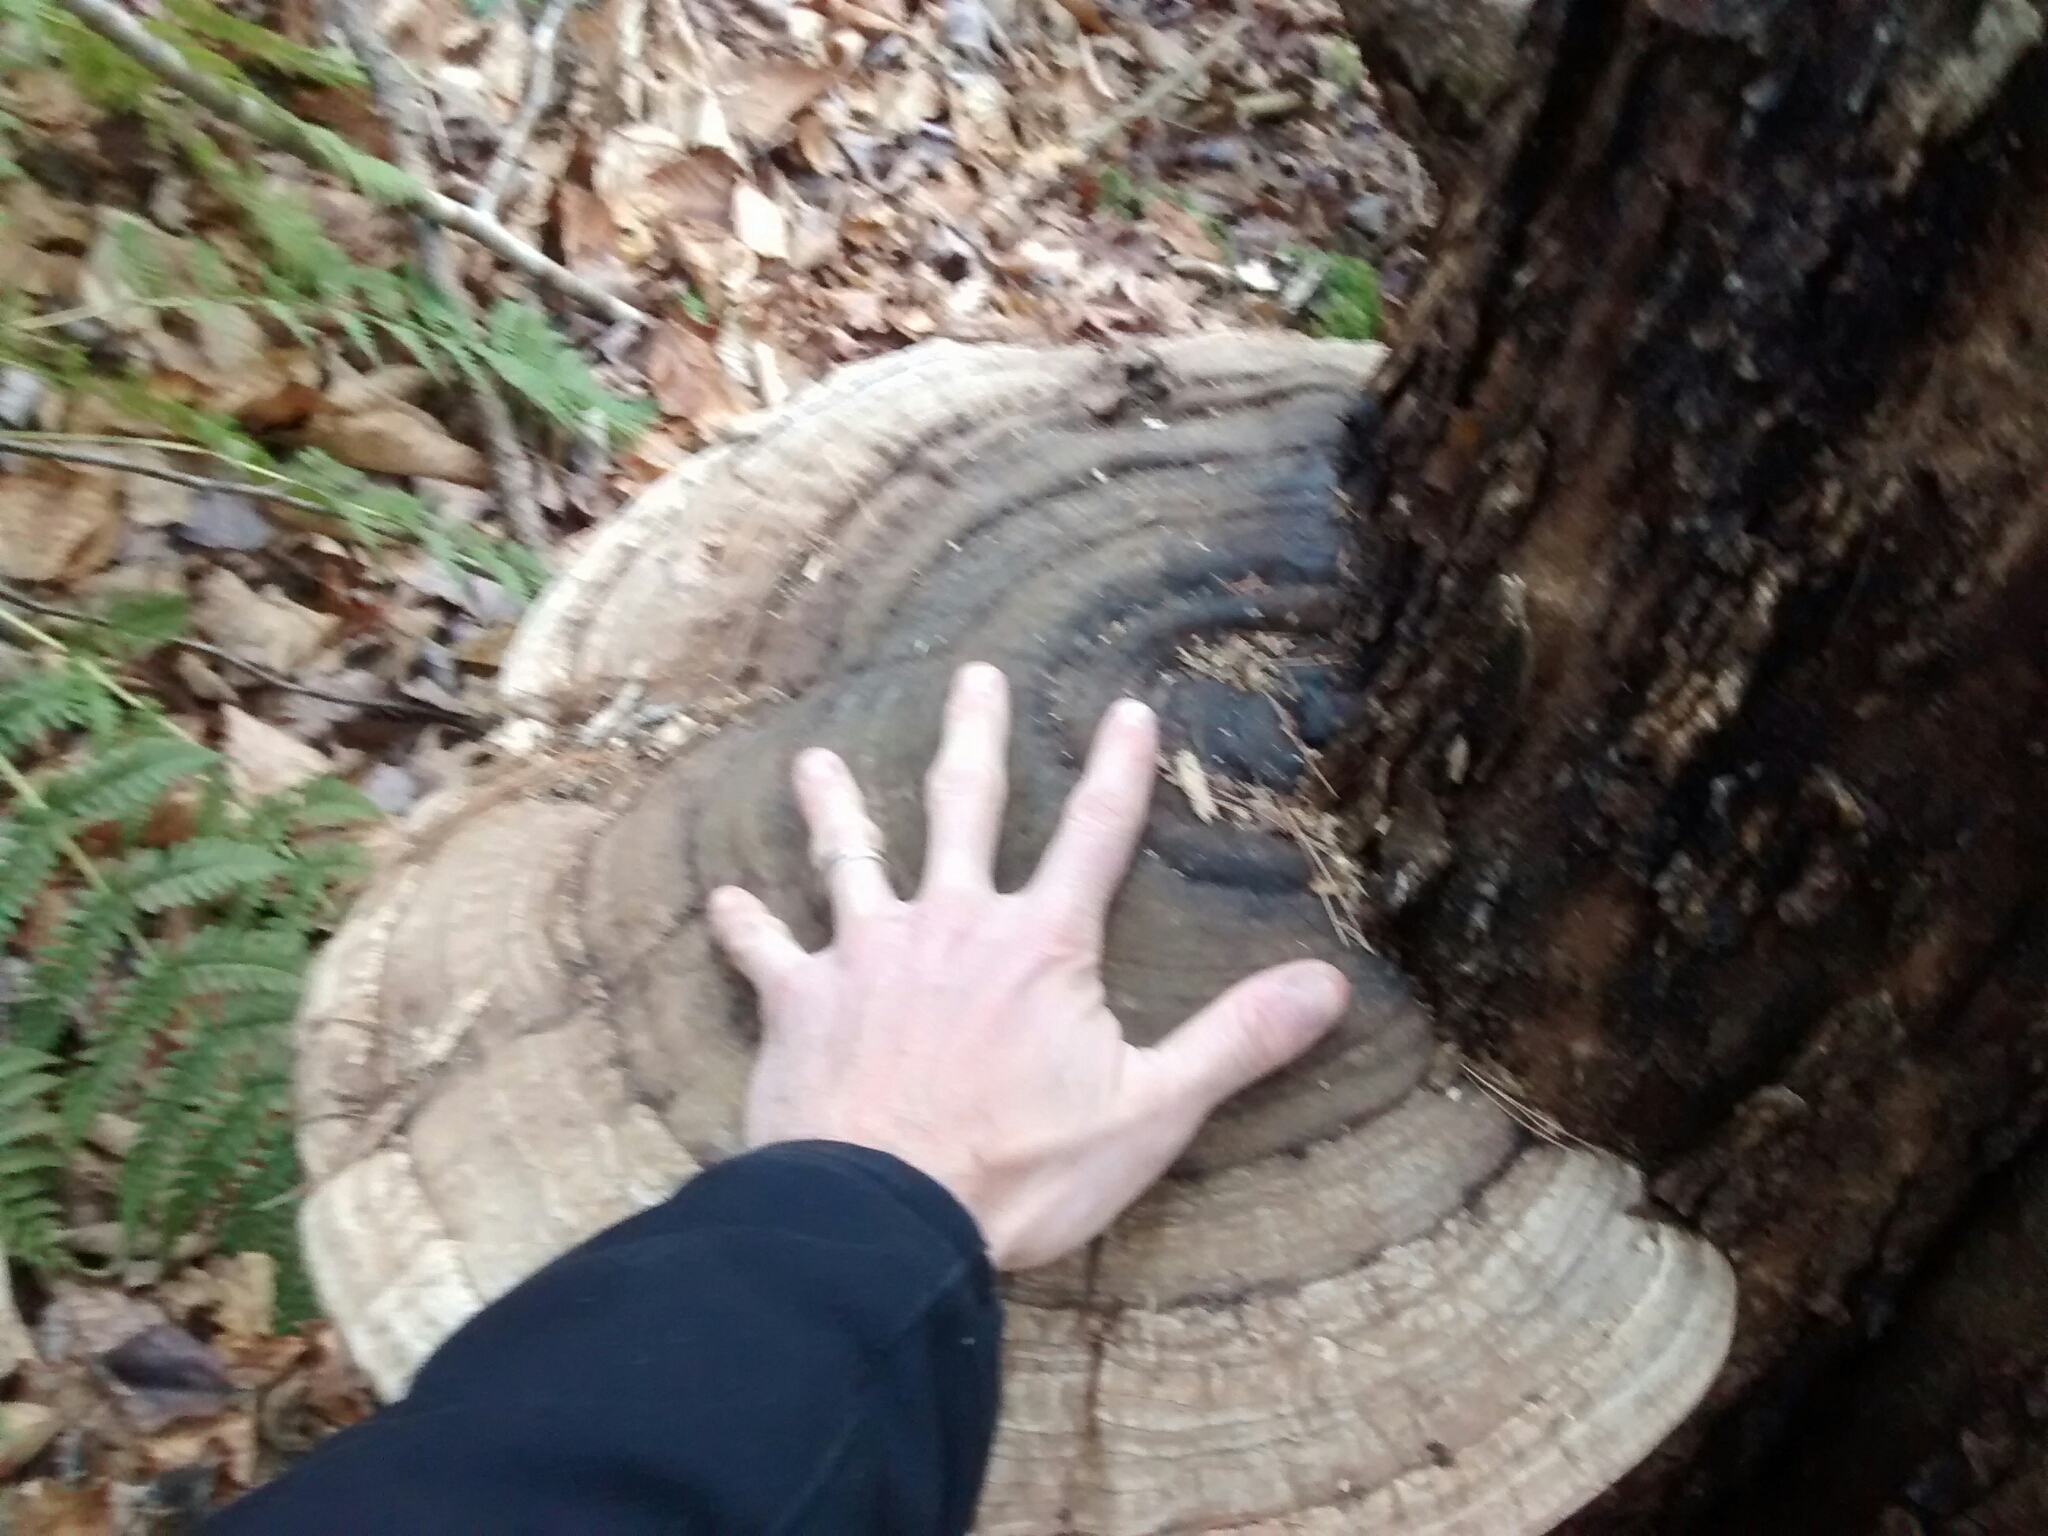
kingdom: Fungi
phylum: Basidiomycota
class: Agaricomycetes
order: Polyporales
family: Polyporaceae
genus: Ganoderma
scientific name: Ganoderma applanatum
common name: Artist's bracket
